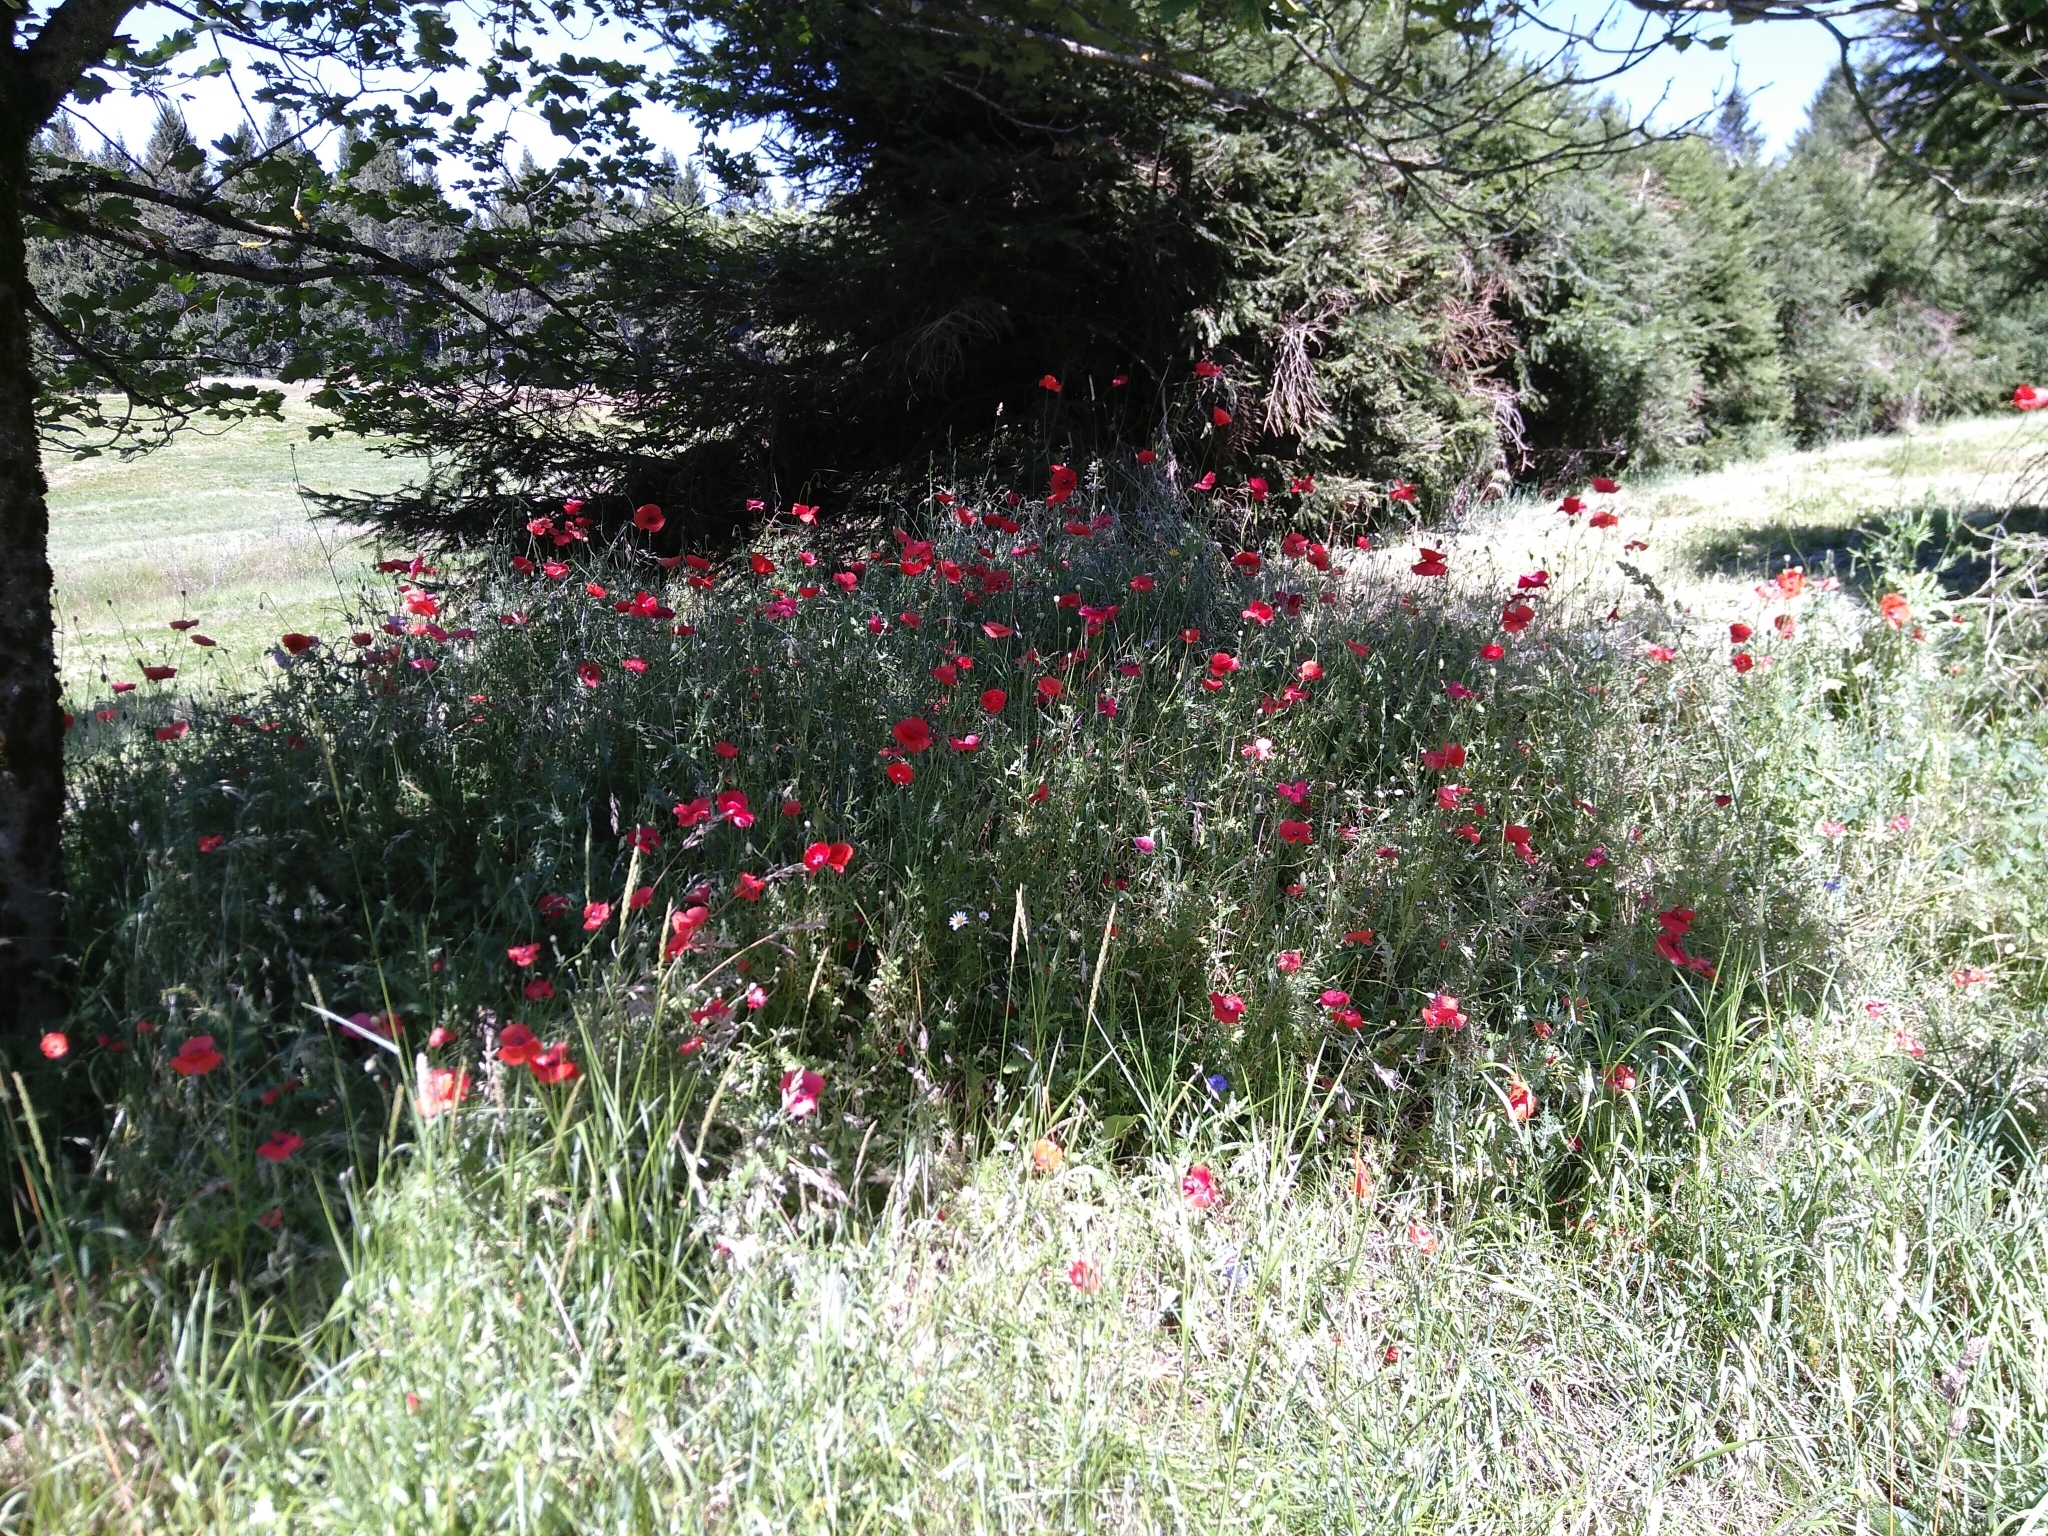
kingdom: Plantae
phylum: Tracheophyta
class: Magnoliopsida
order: Ranunculales
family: Papaveraceae
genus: Papaver
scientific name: Papaver rhoeas
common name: Corn poppy
